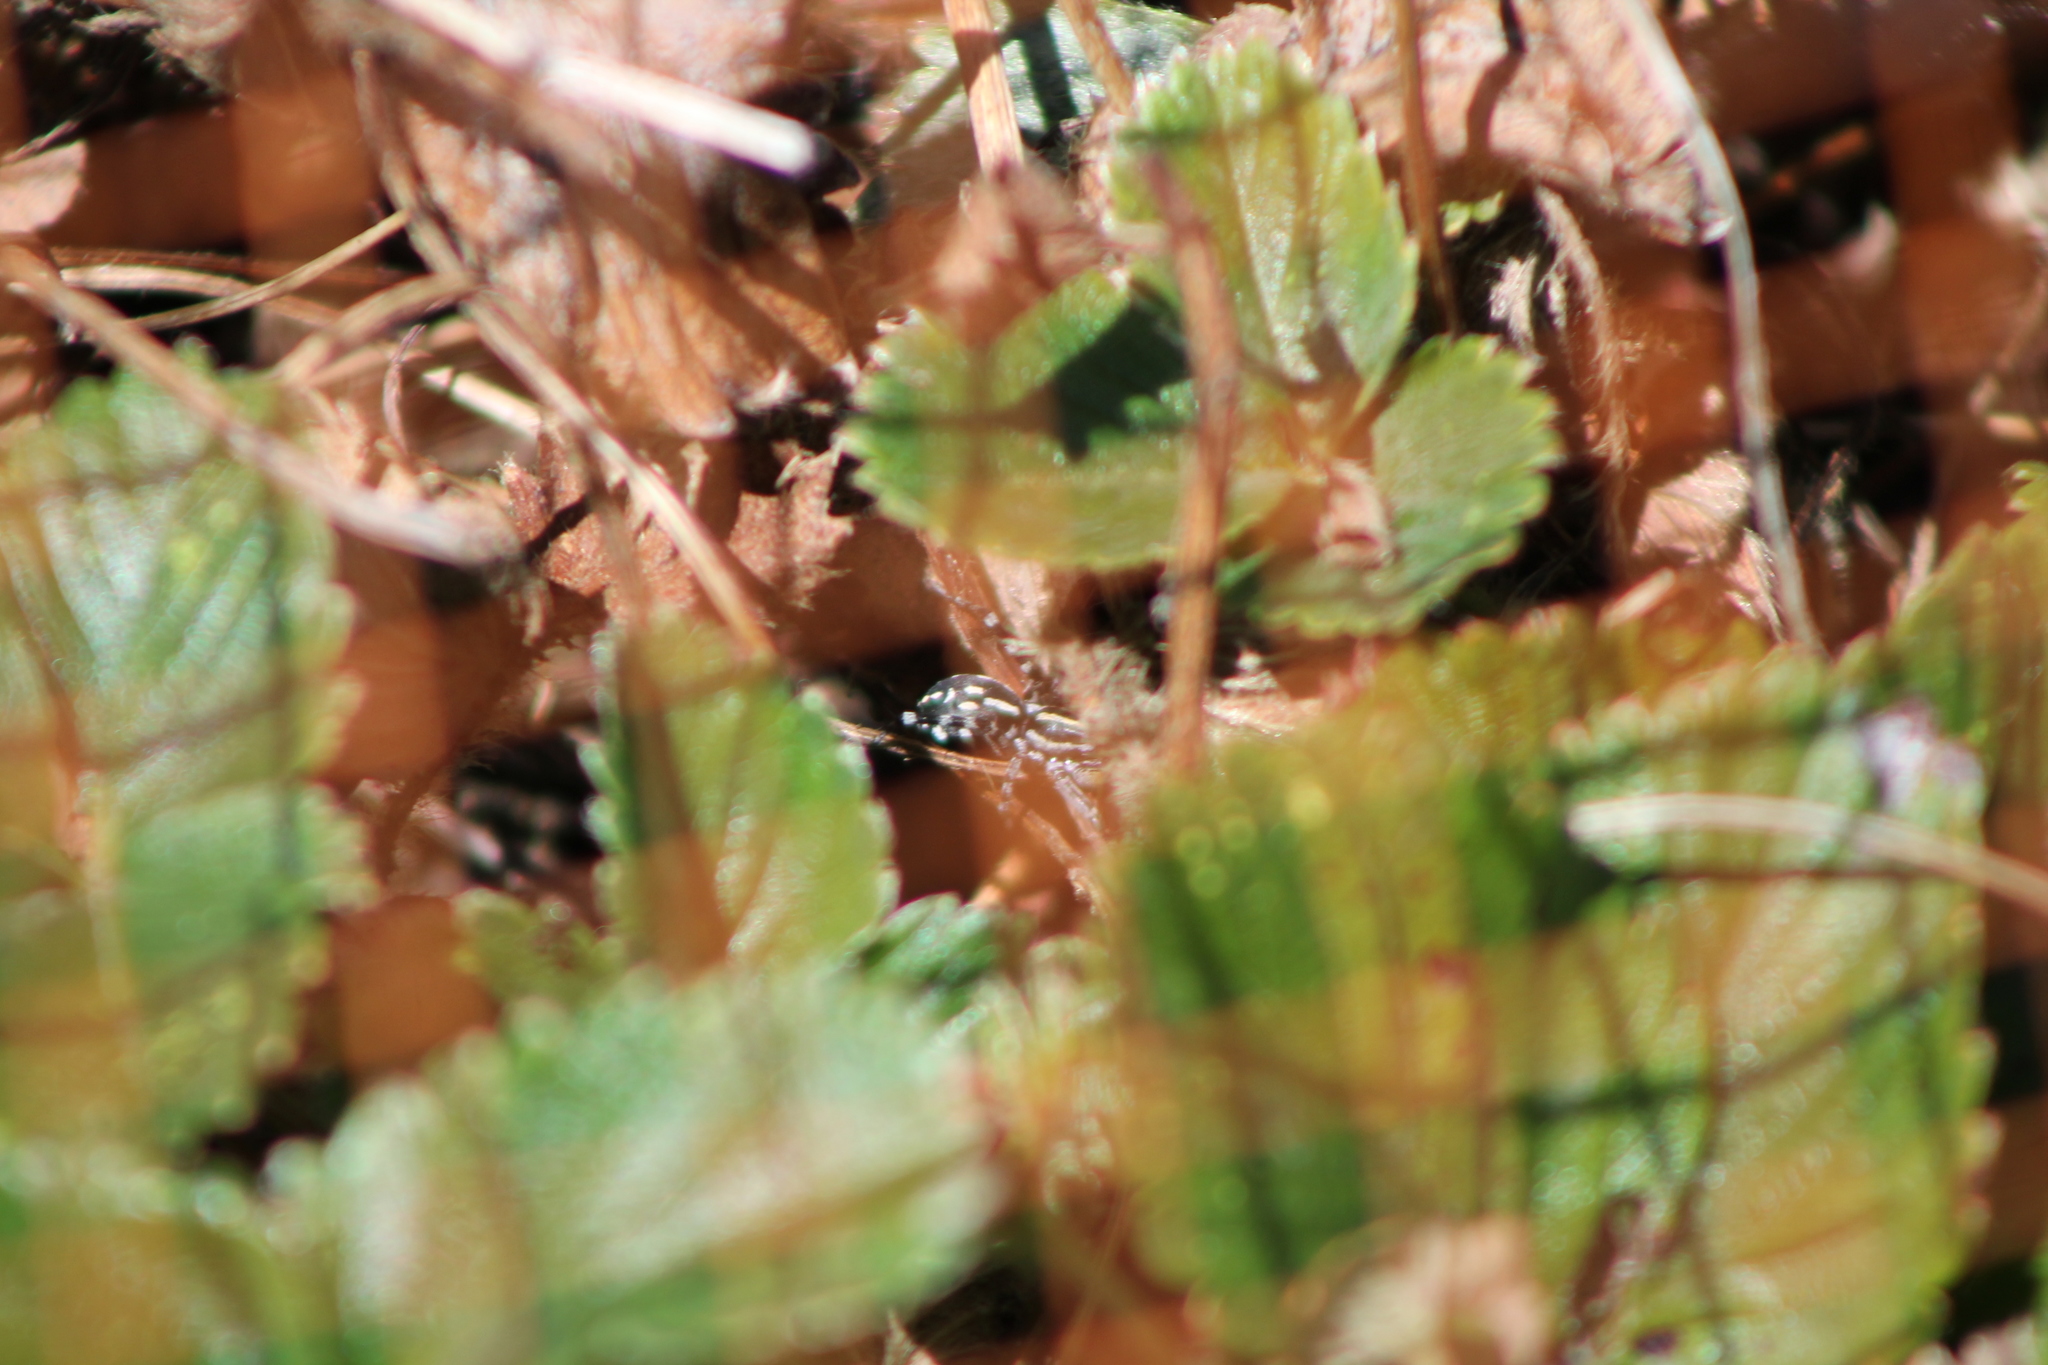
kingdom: Animalia
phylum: Arthropoda
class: Arachnida
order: Araneae
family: Corinnidae
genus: Nyssus
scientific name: Nyssus coloripes
